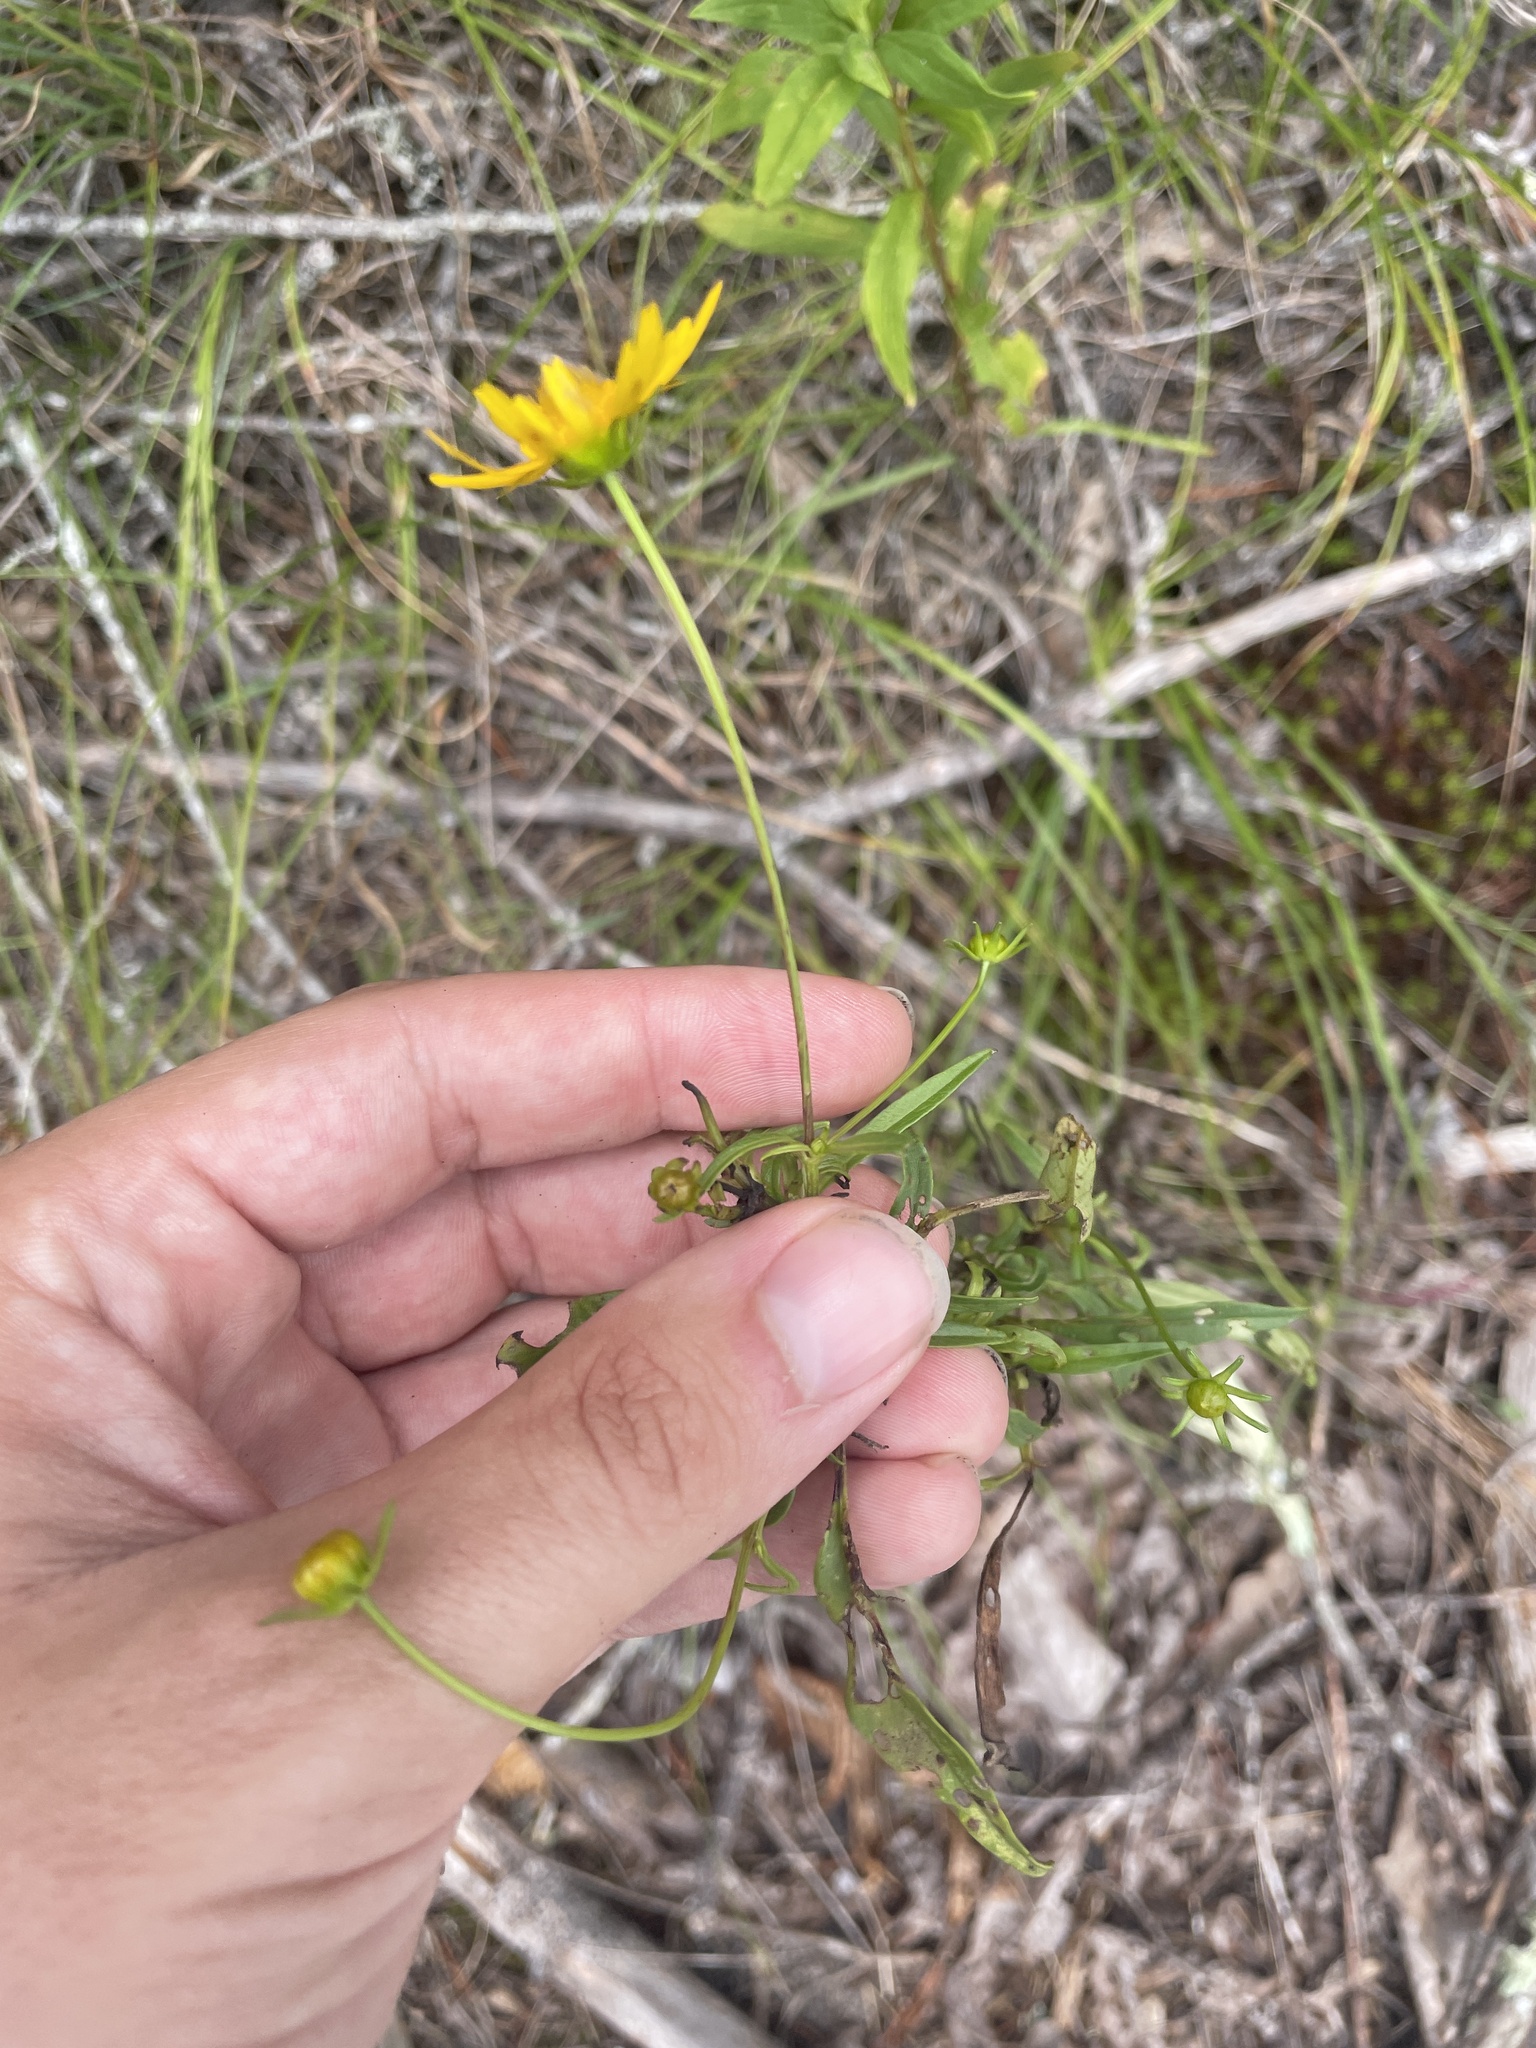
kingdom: Plantae
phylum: Tracheophyta
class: Magnoliopsida
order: Asterales
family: Asteraceae
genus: Coreopsis
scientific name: Coreopsis grandiflora
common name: Large-flowered tickseed
